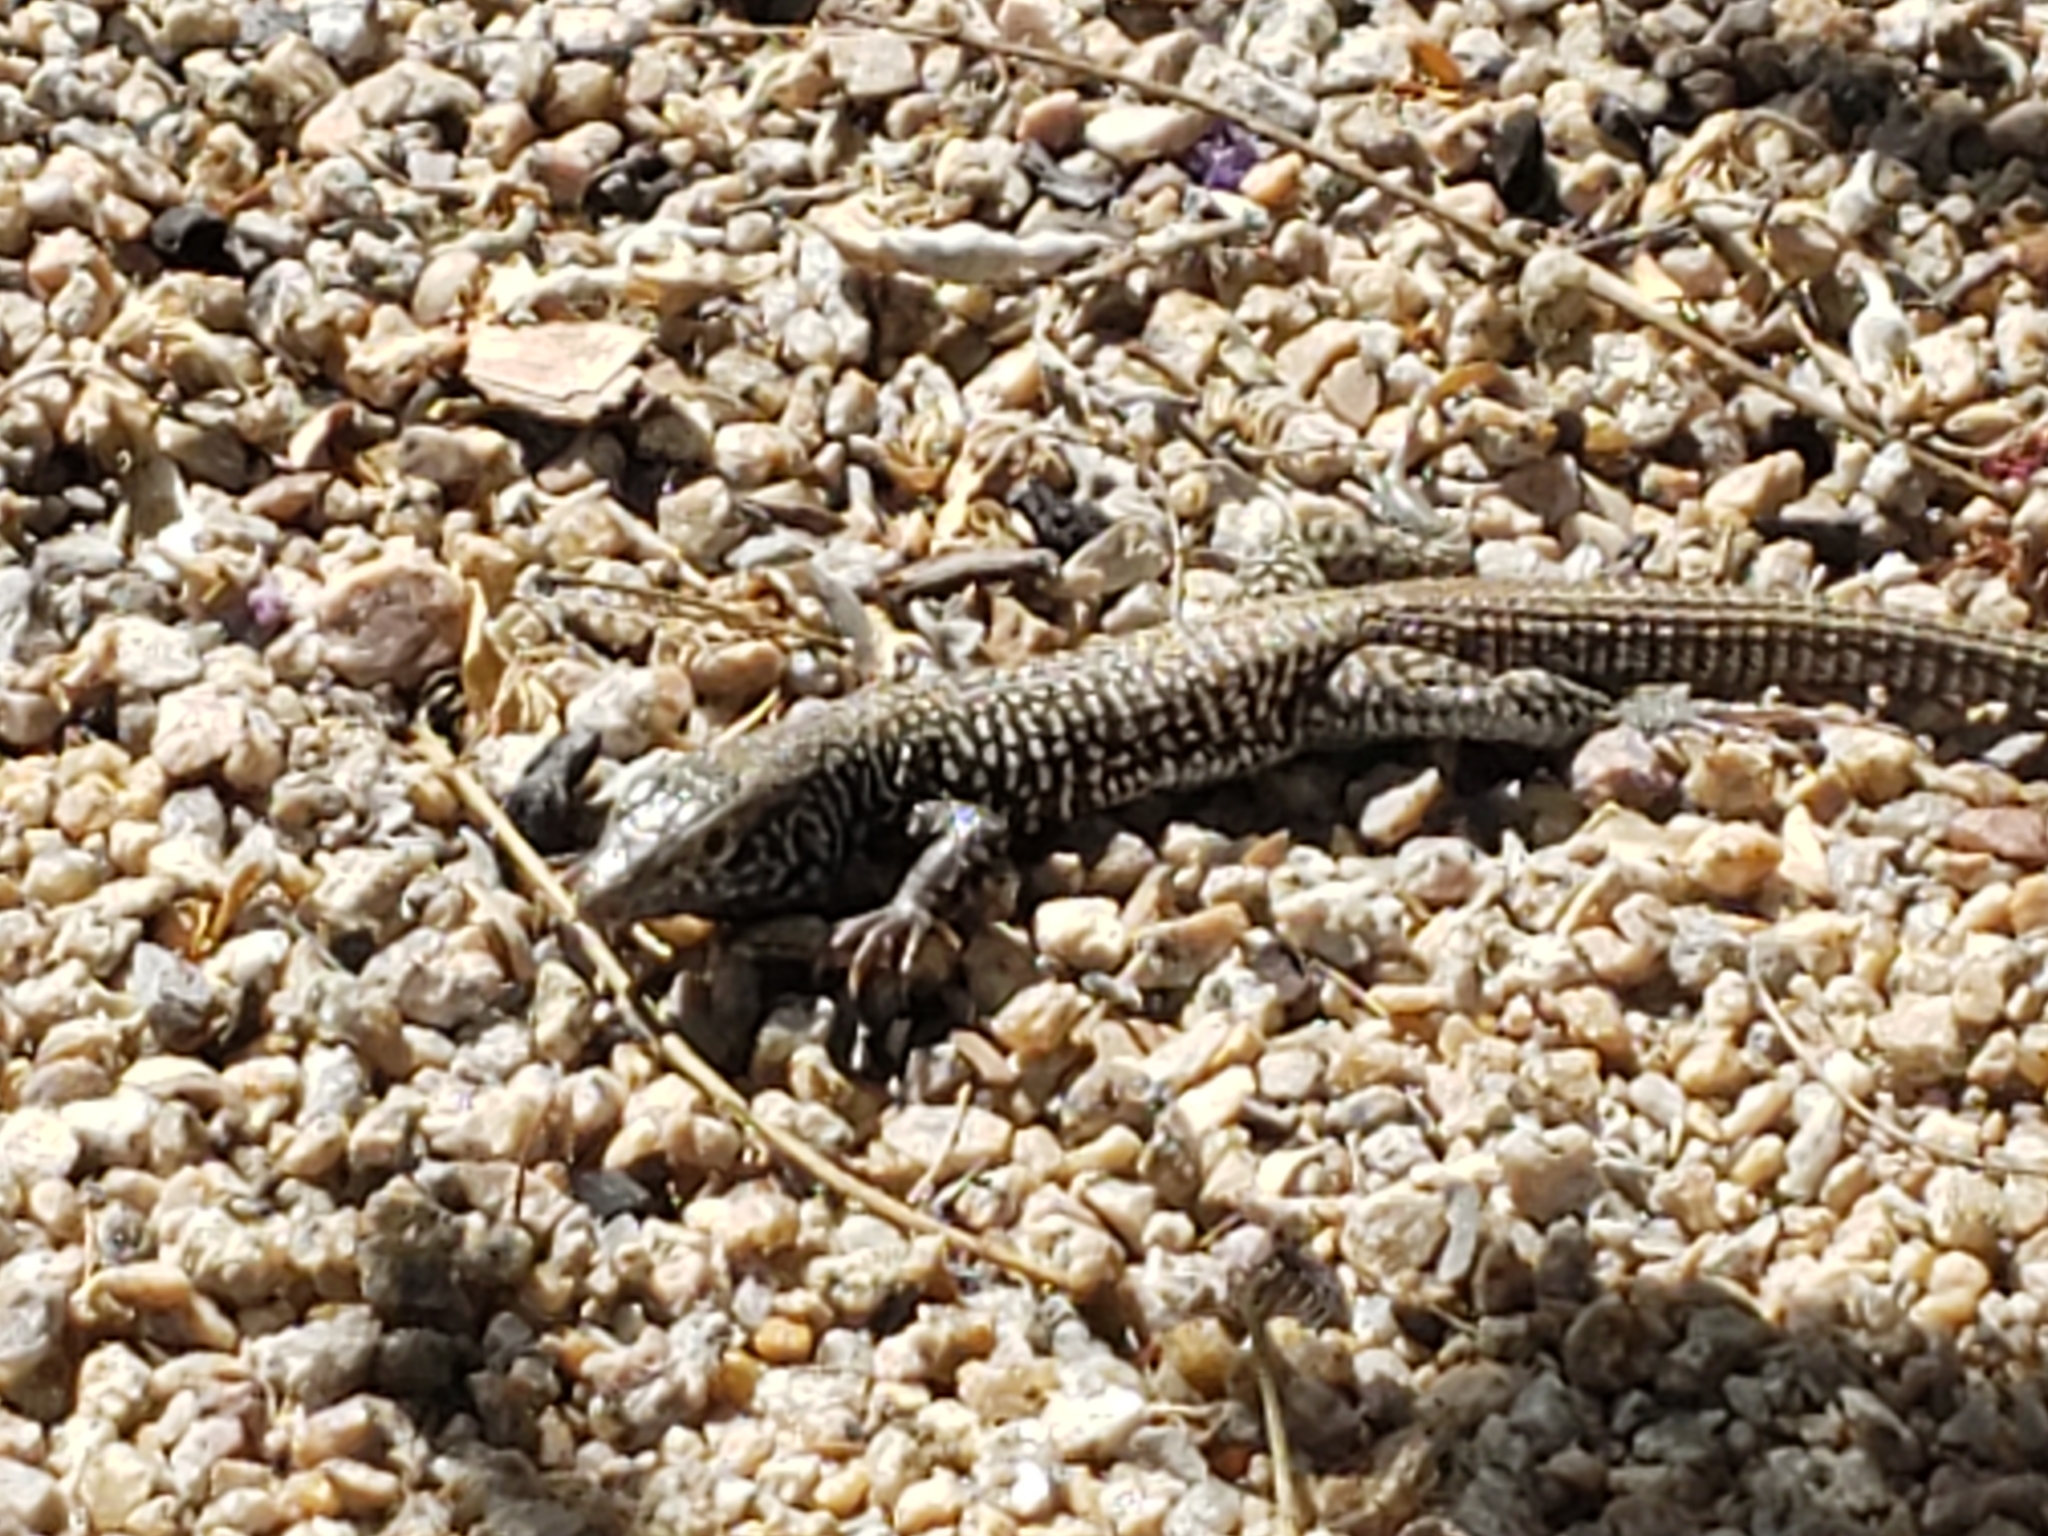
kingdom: Animalia
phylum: Chordata
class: Squamata
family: Teiidae
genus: Aspidoscelis
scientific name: Aspidoscelis tigris
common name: Tiger whiptail
